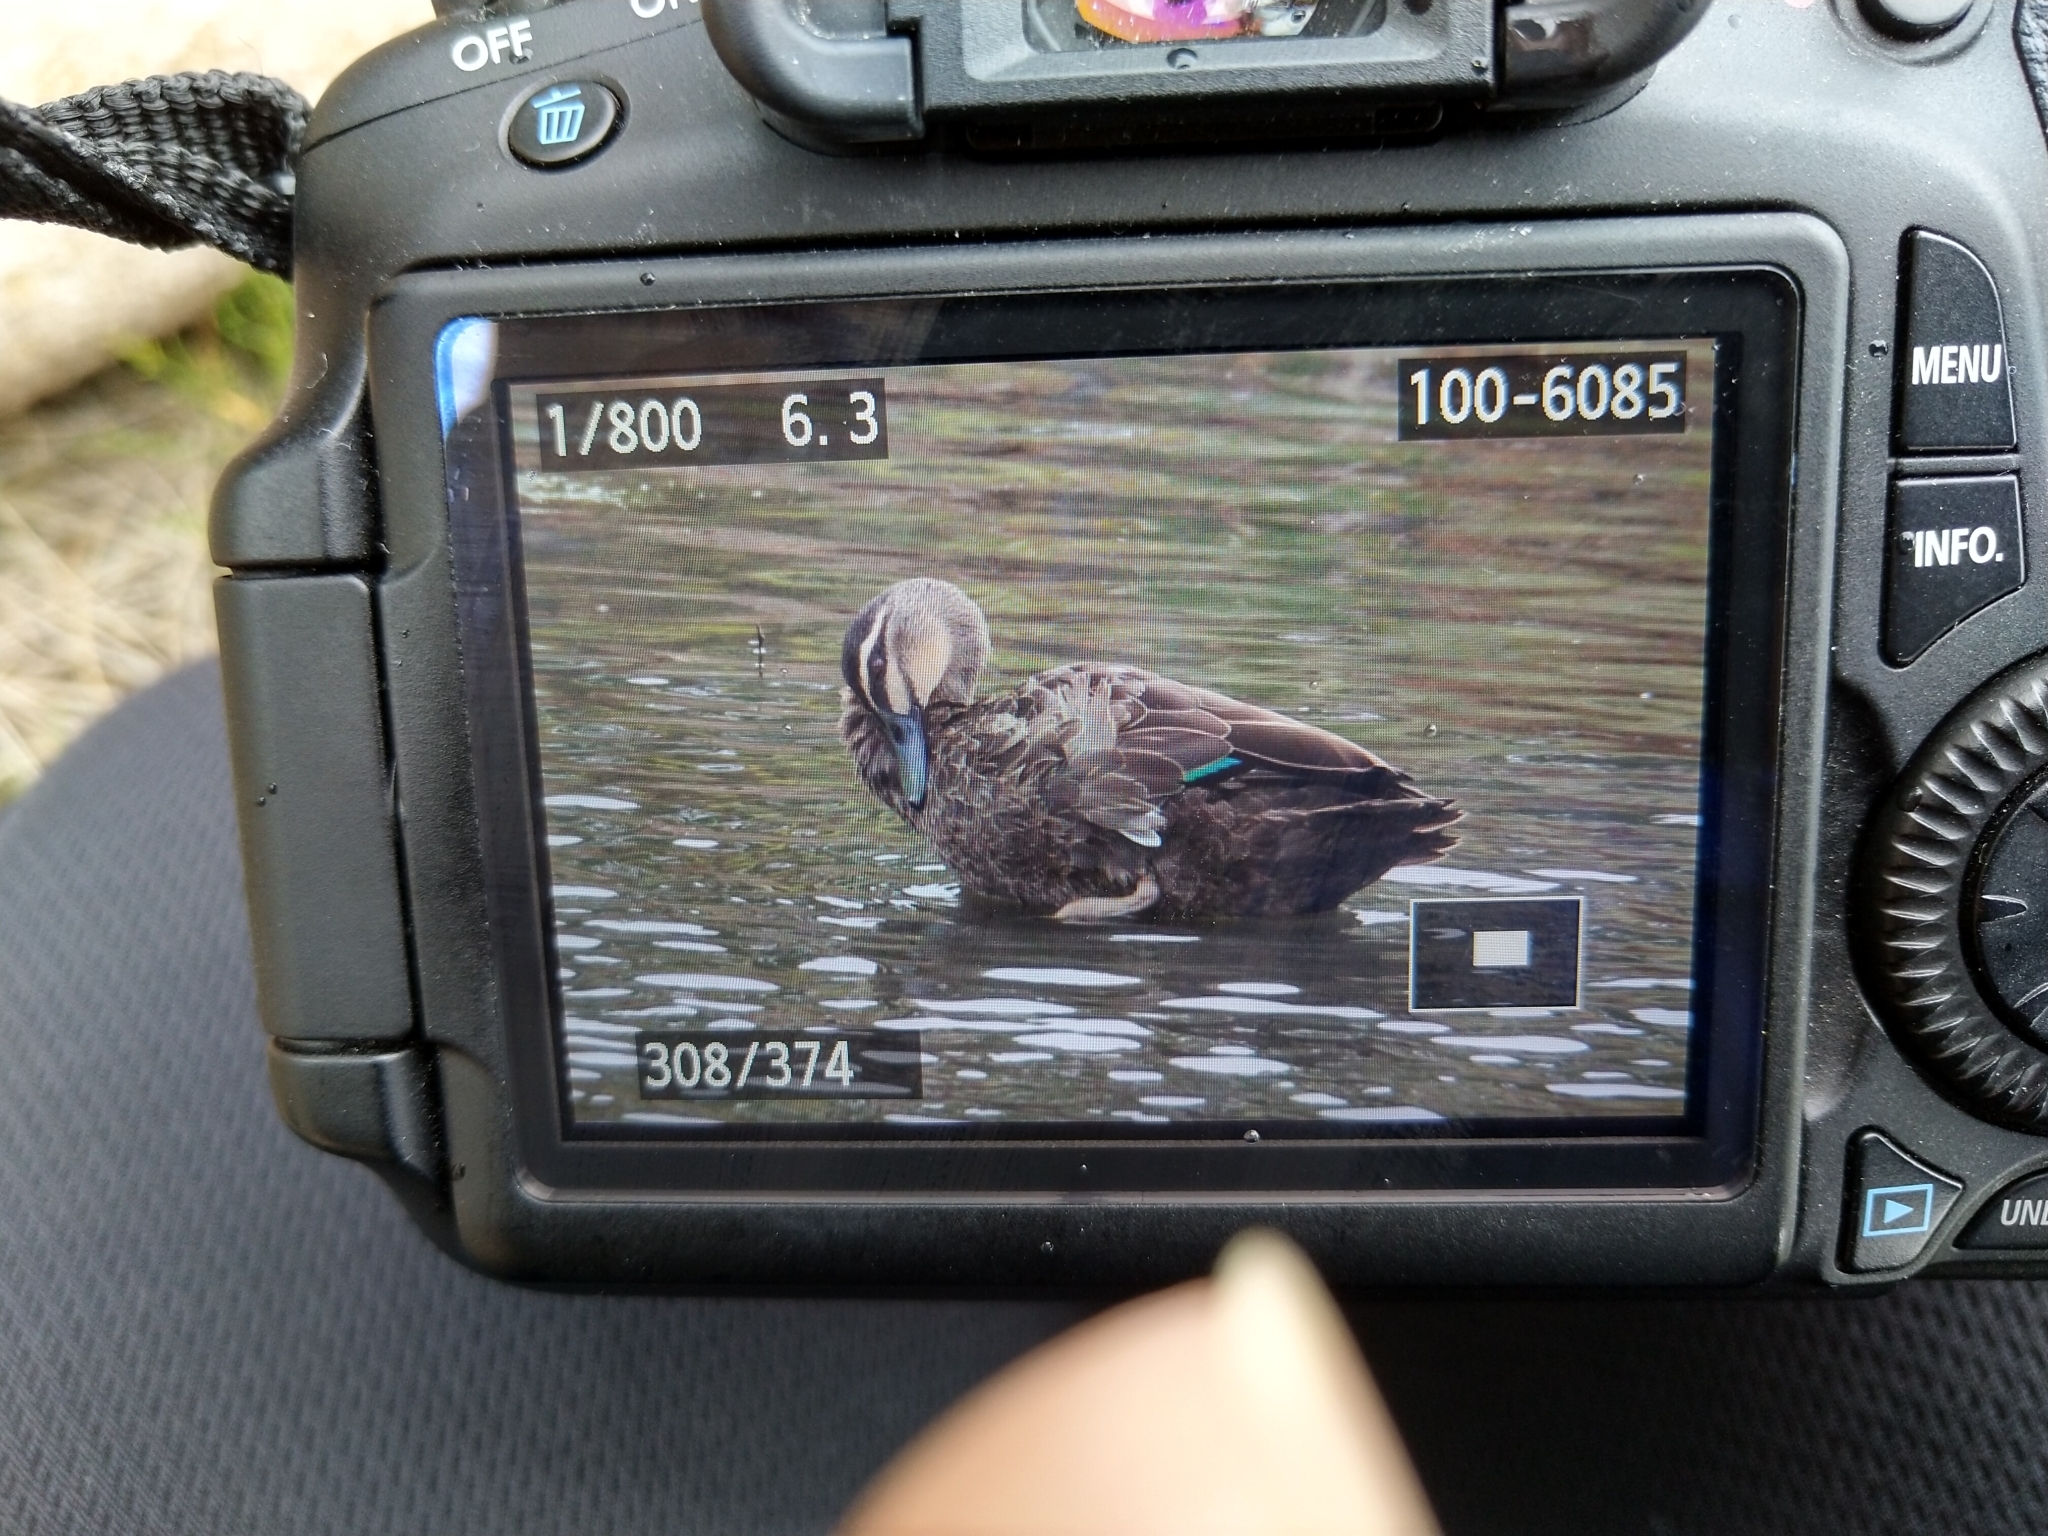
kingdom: Animalia
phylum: Chordata
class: Aves
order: Anseriformes
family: Anatidae
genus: Anas
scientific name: Anas superciliosa
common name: Pacific black duck
